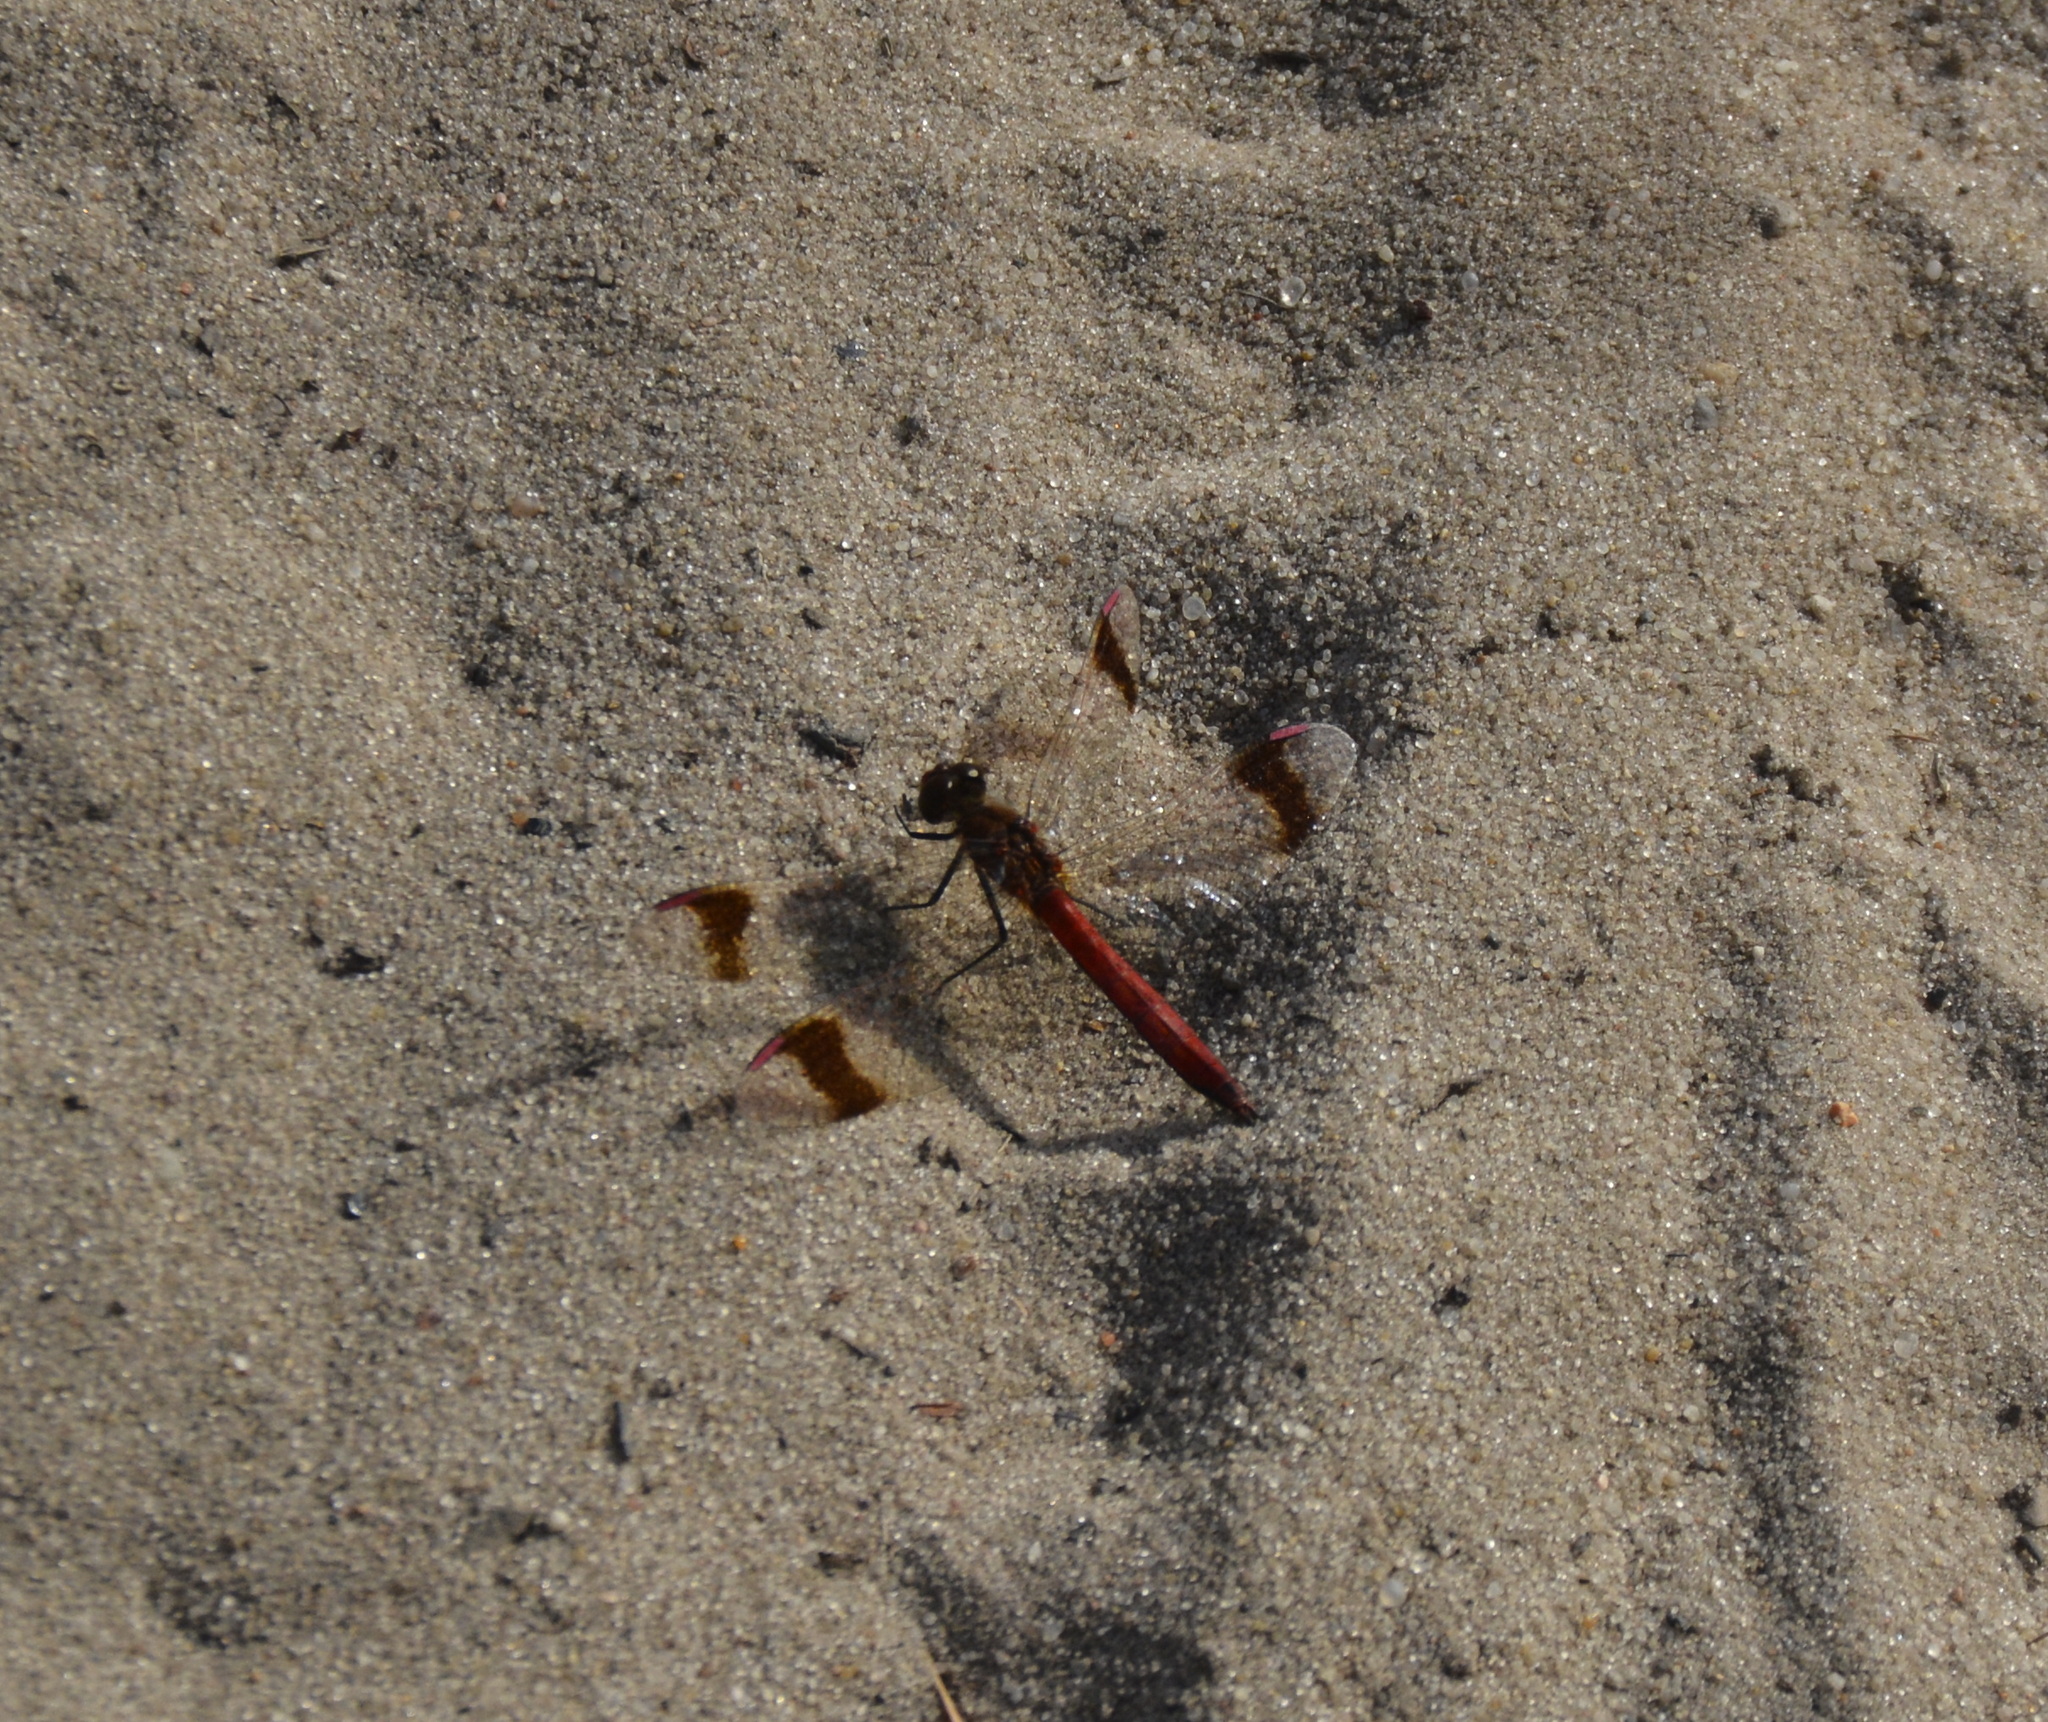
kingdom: Animalia
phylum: Arthropoda
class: Insecta
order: Odonata
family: Libellulidae
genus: Sympetrum
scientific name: Sympetrum pedemontanum
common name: Banded darter
